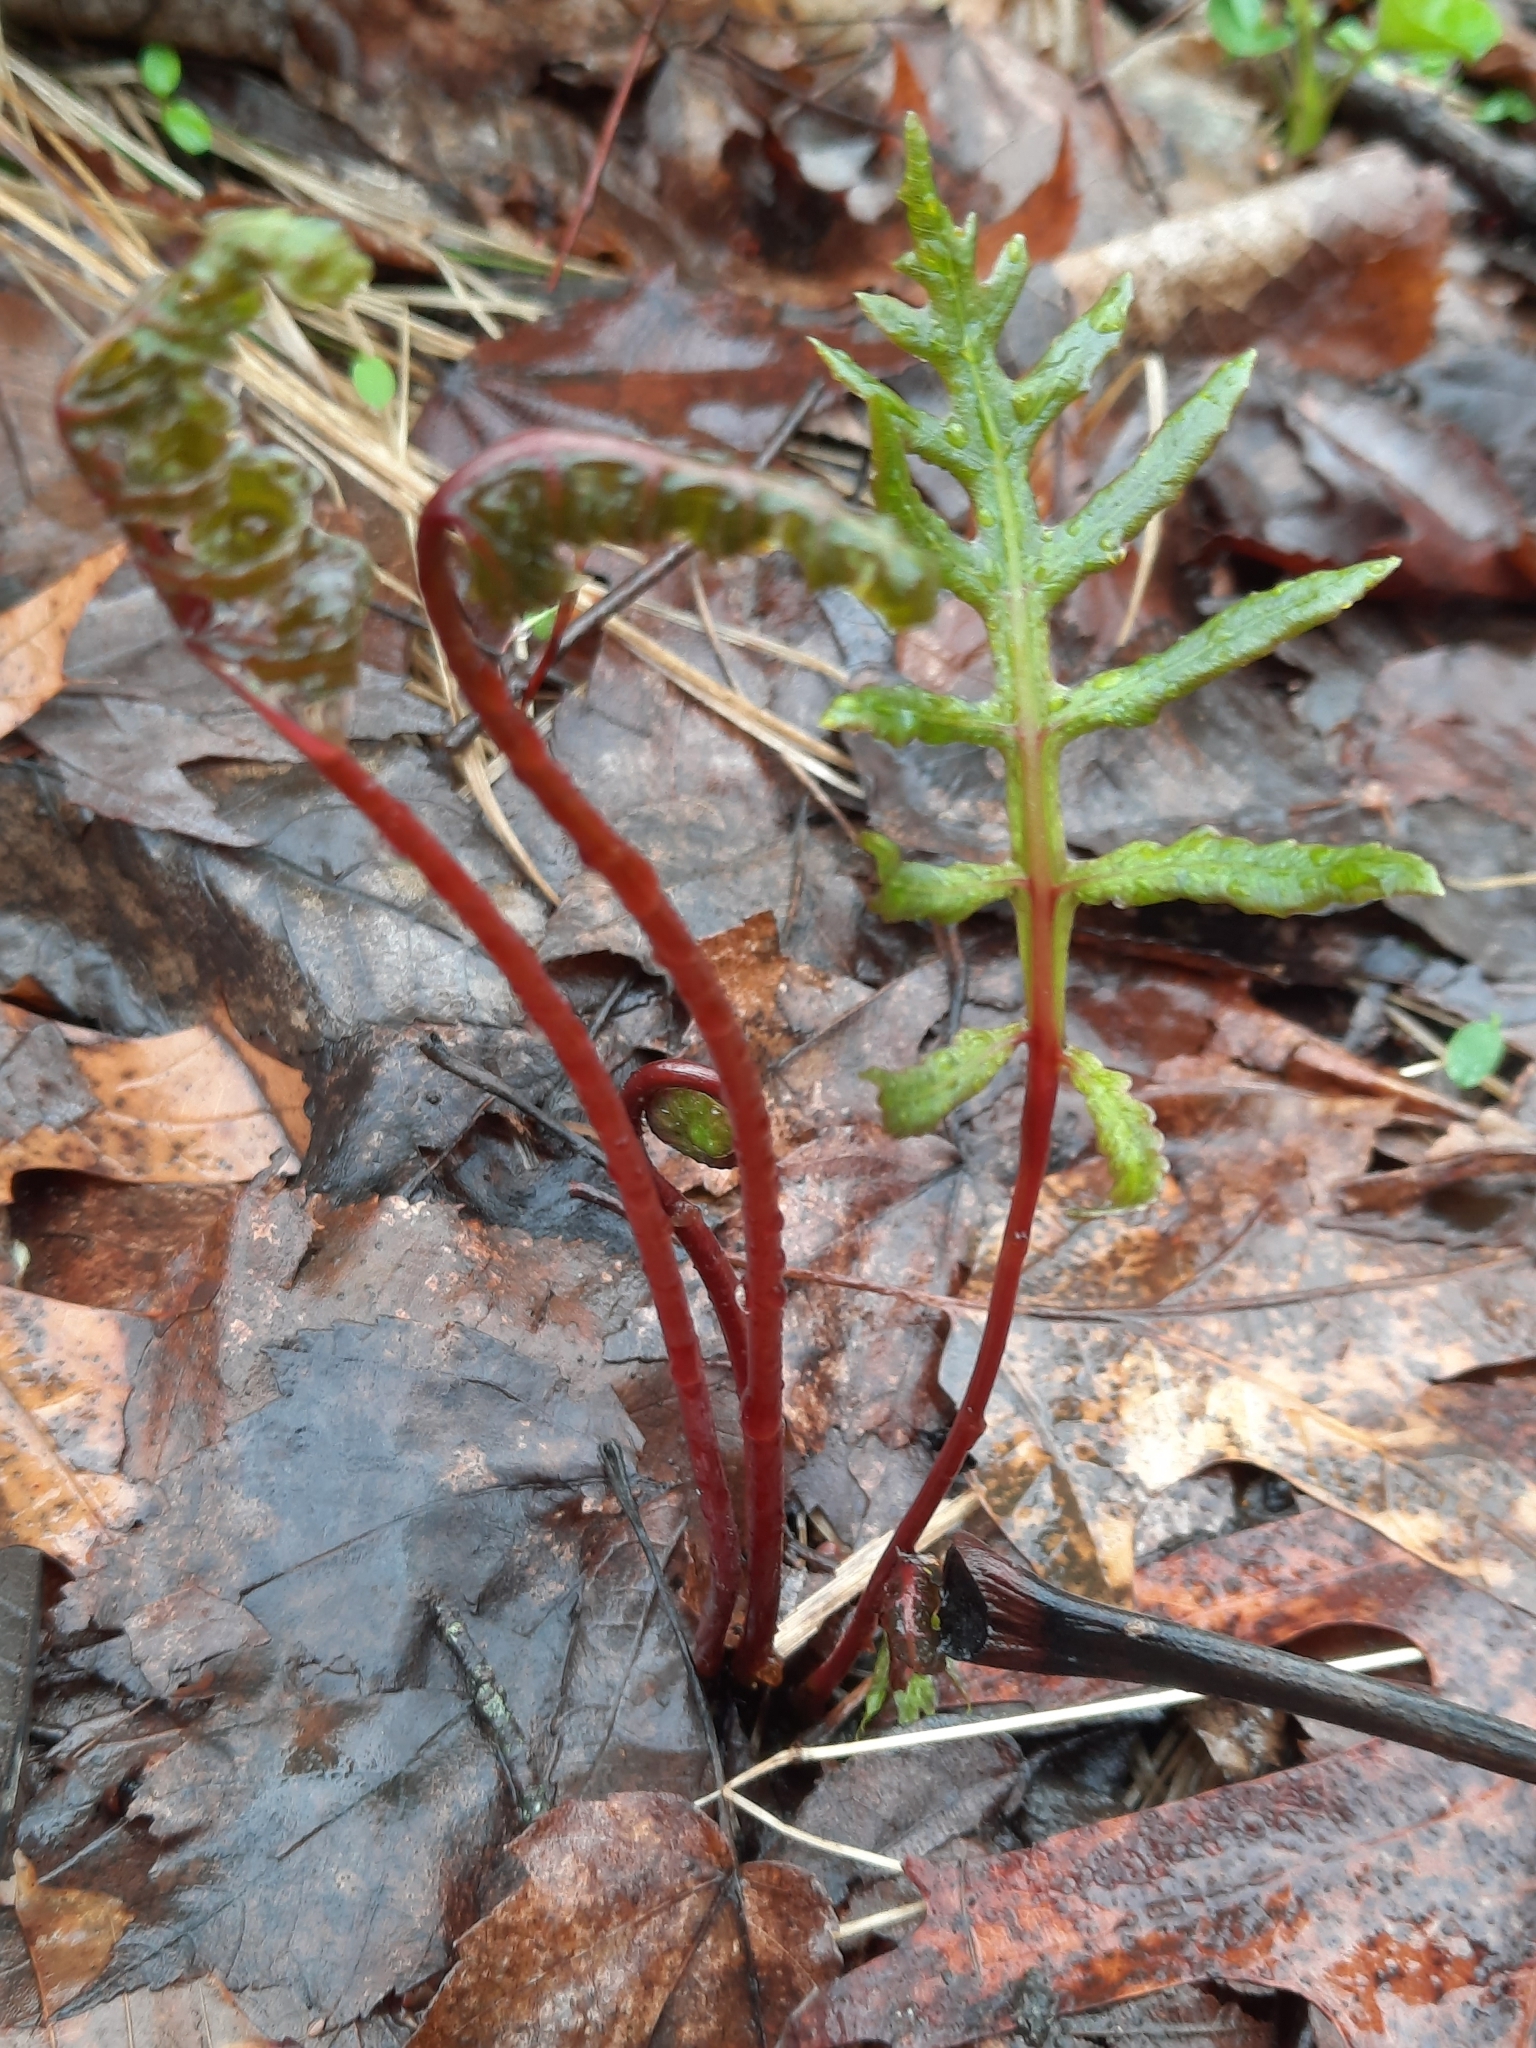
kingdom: Plantae
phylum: Tracheophyta
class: Polypodiopsida
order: Polypodiales
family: Onocleaceae
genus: Onoclea
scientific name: Onoclea sensibilis
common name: Sensitive fern
